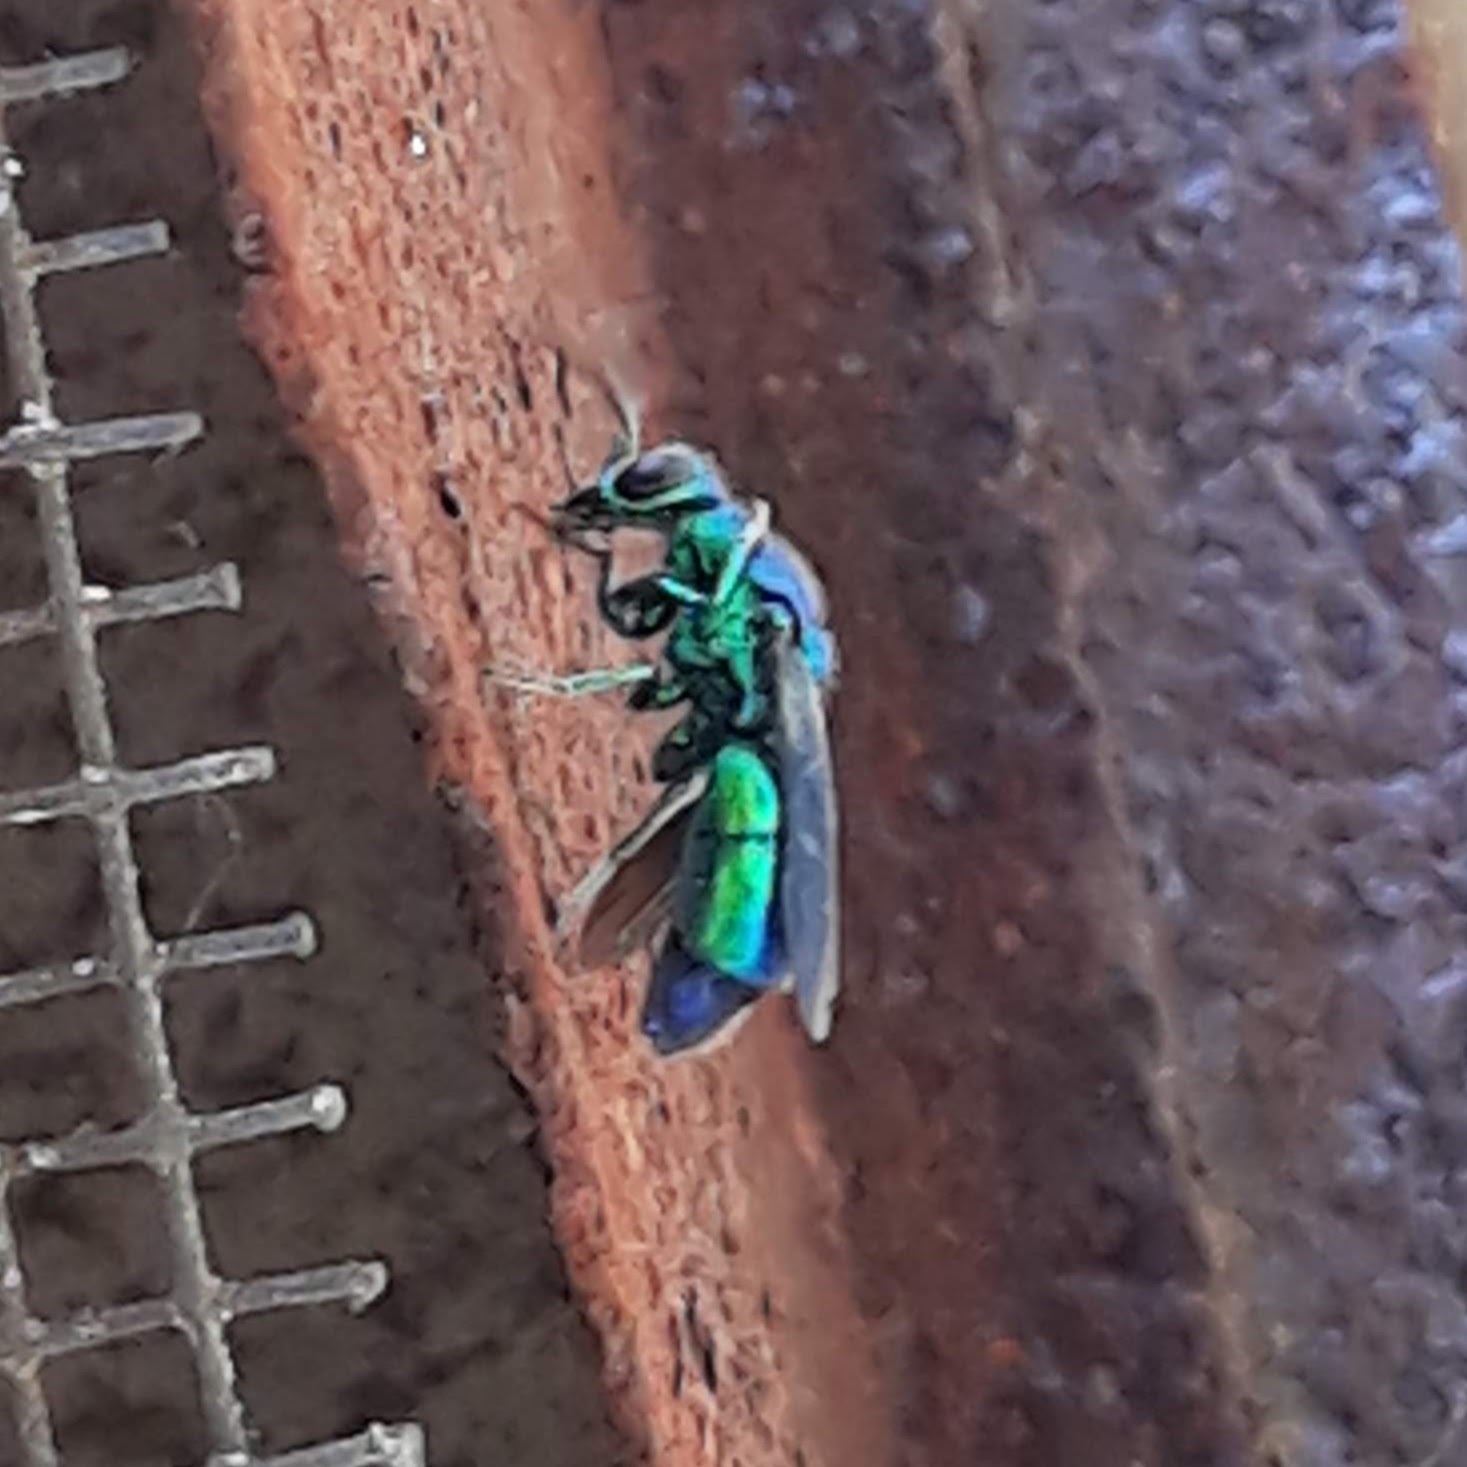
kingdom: Animalia
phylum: Arthropoda
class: Insecta
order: Hymenoptera
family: Chrysididae
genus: Chrysis
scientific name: Chrysis angolensis
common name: Cuckoo wasp
